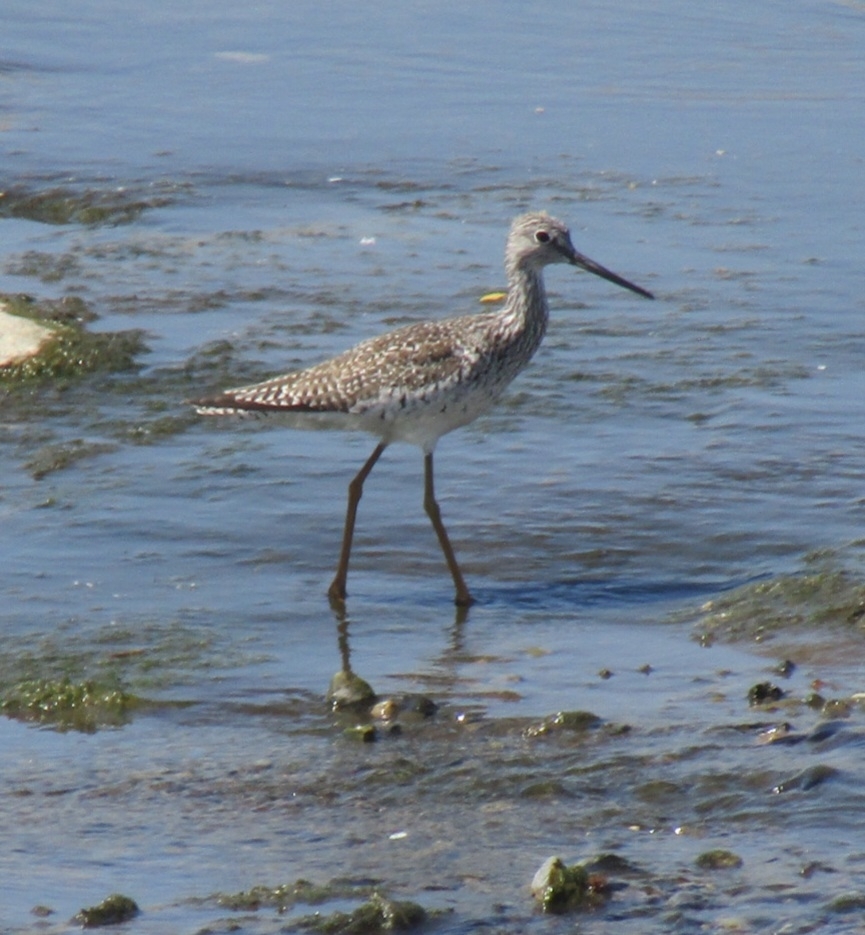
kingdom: Animalia
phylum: Chordata
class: Aves
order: Charadriiformes
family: Scolopacidae
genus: Tringa
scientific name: Tringa melanoleuca
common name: Greater yellowlegs
